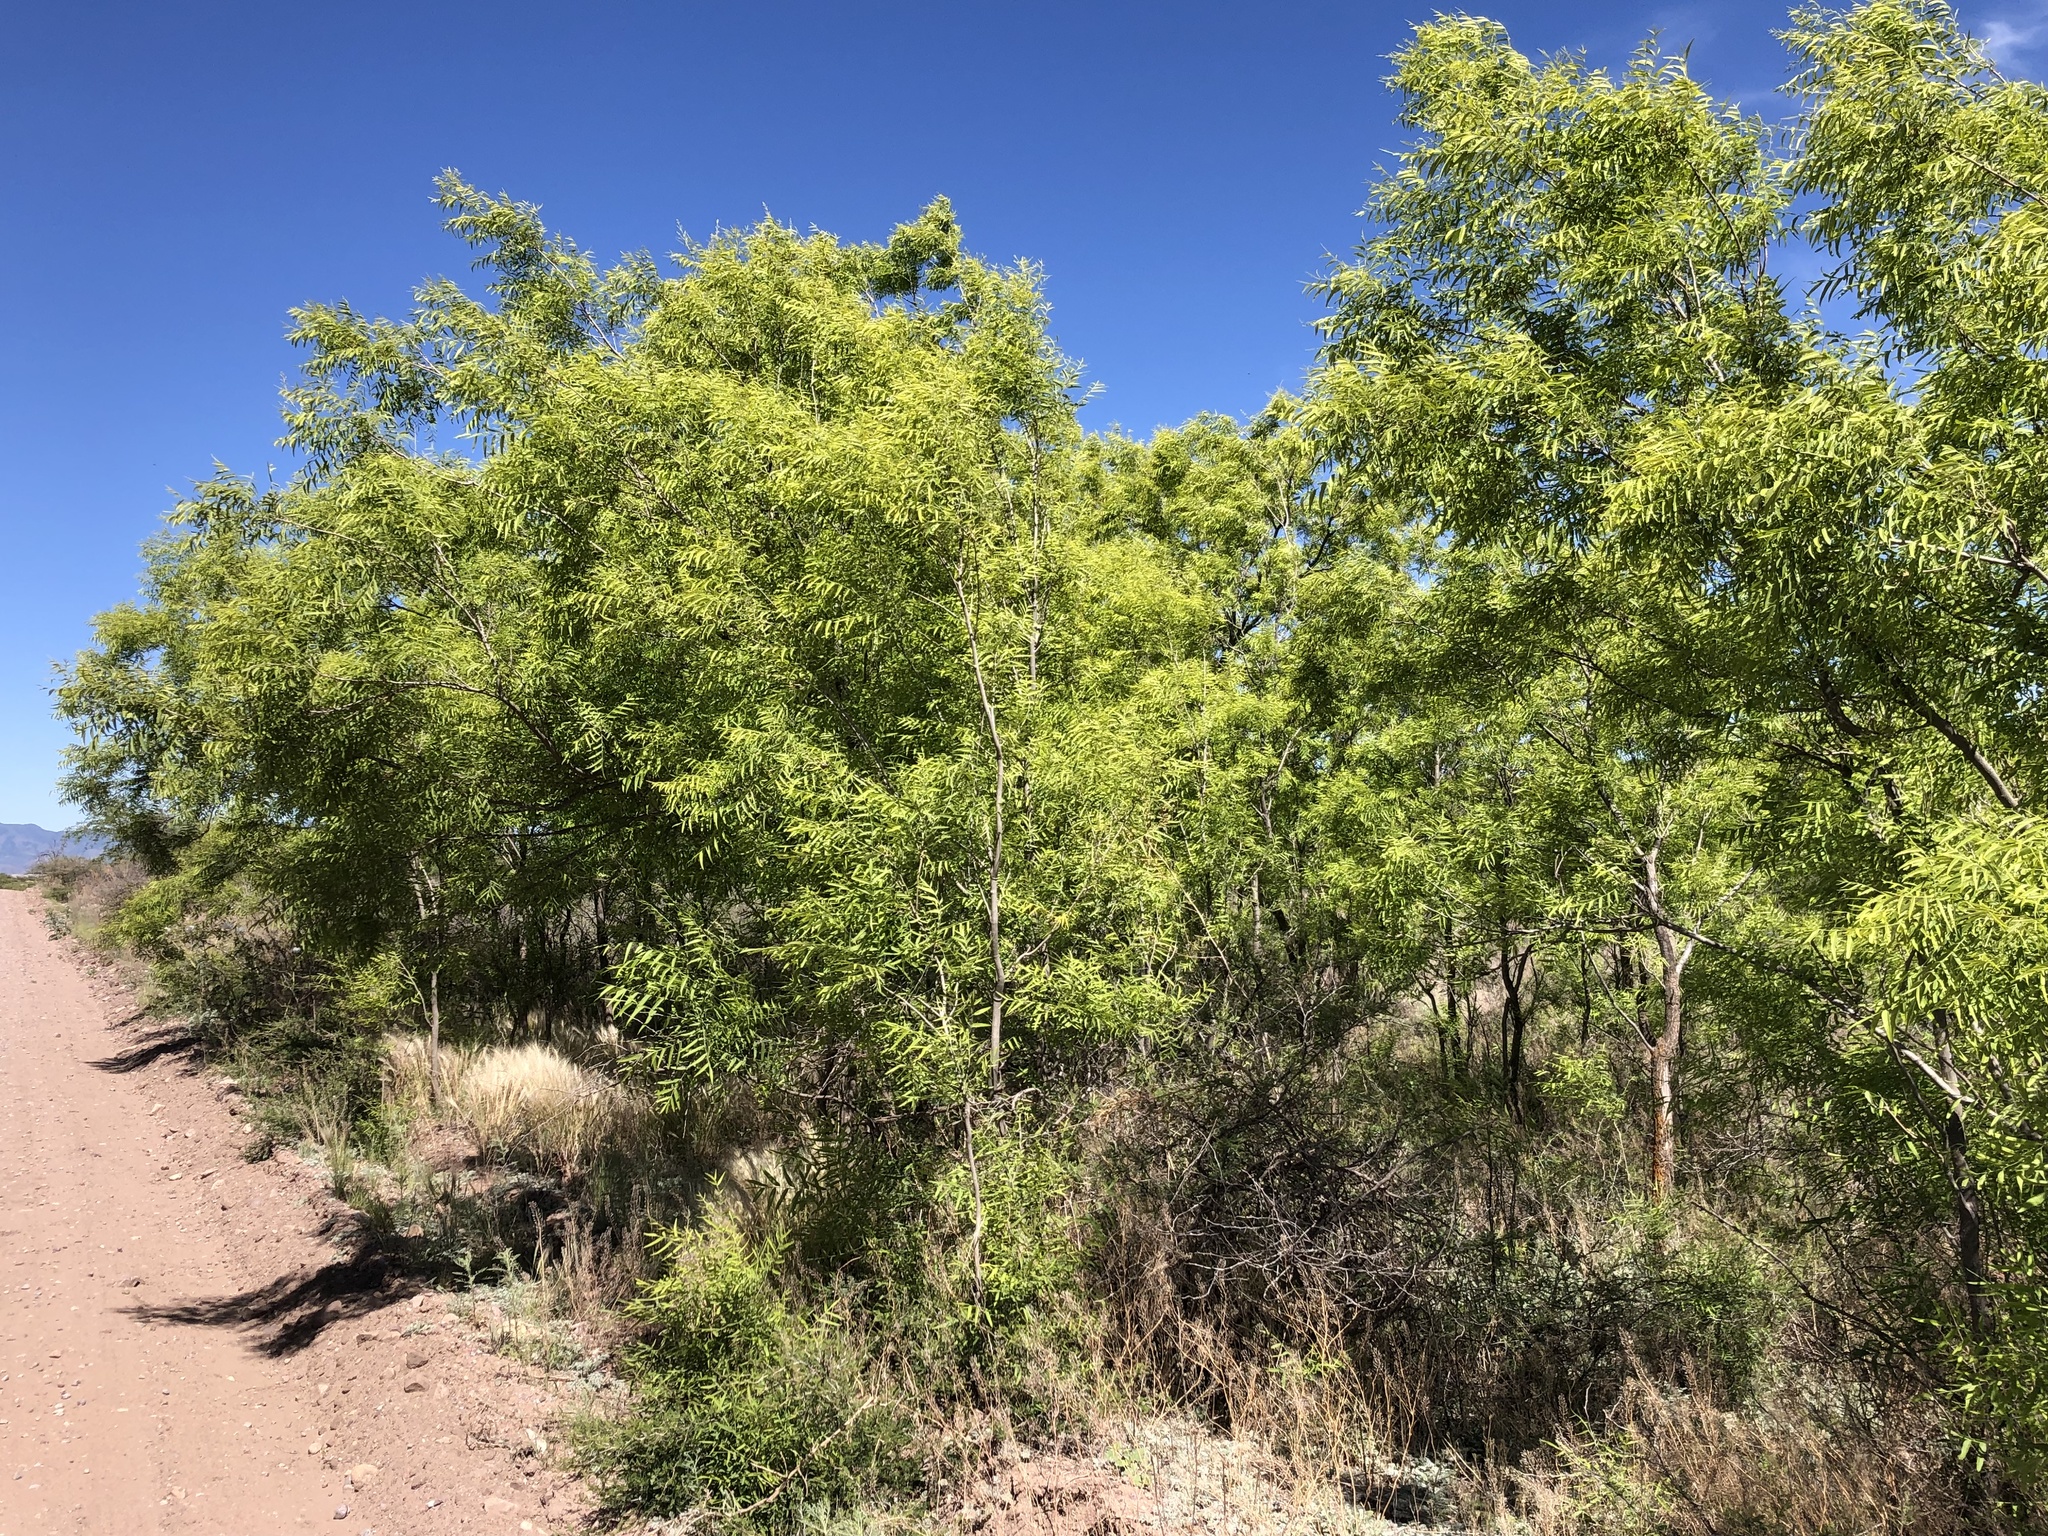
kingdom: Plantae
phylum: Tracheophyta
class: Magnoliopsida
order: Sapindales
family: Sapindaceae
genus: Sapindus
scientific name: Sapindus drummondii
